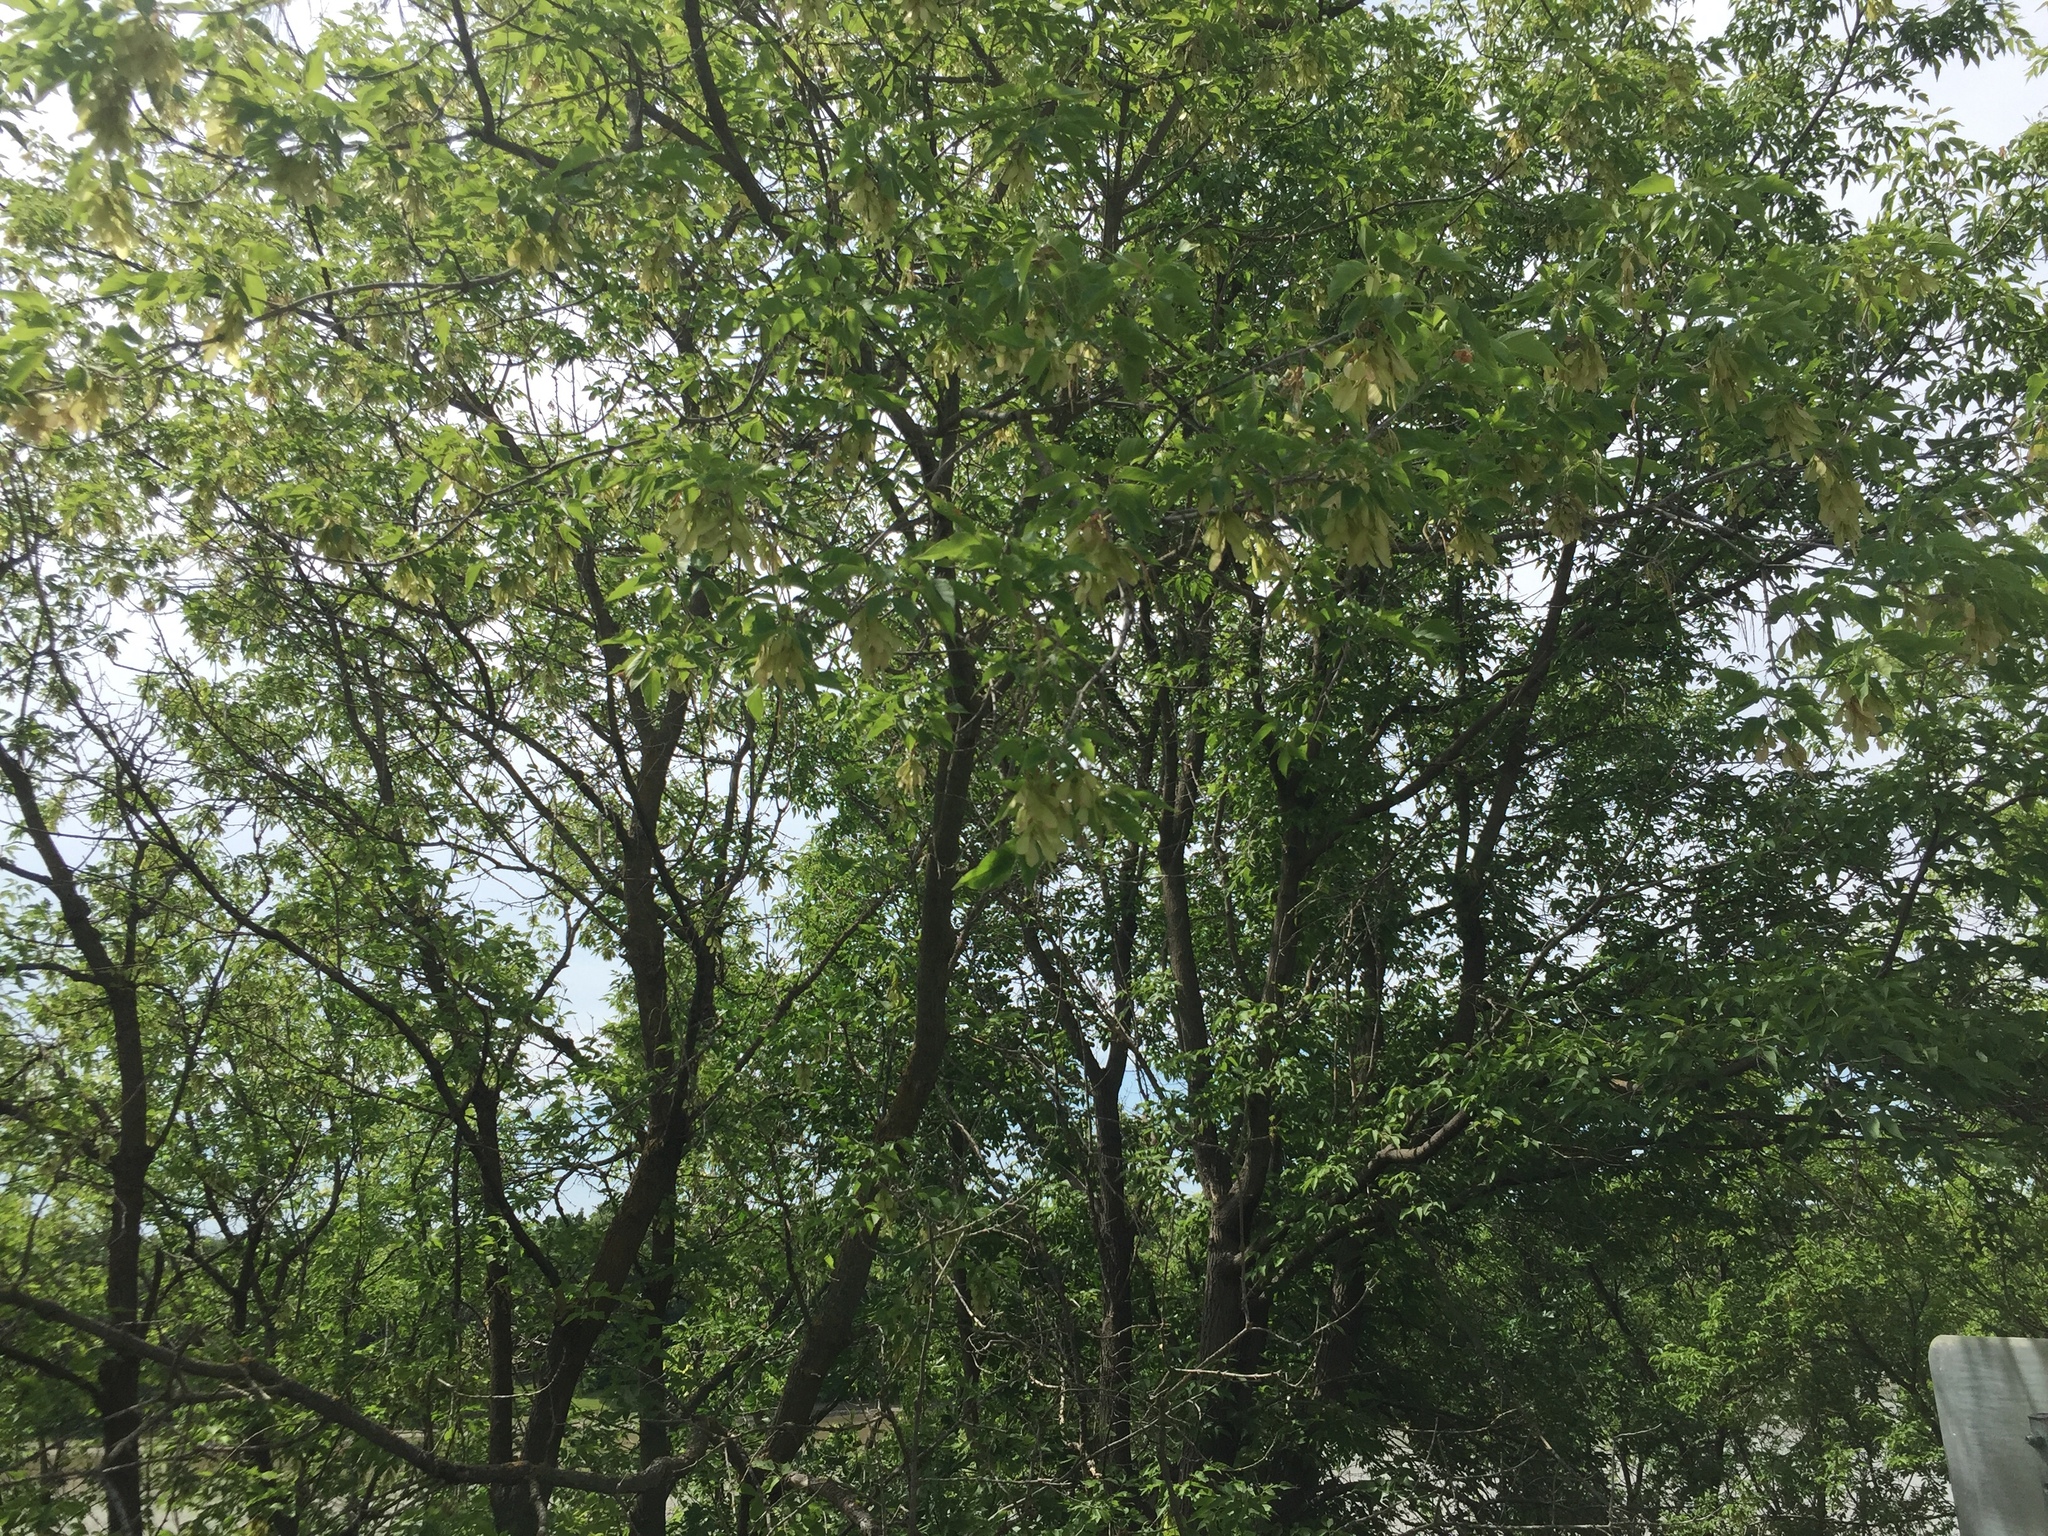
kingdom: Plantae
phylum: Tracheophyta
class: Magnoliopsida
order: Sapindales
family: Sapindaceae
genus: Acer
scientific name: Acer negundo
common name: Ashleaf maple
